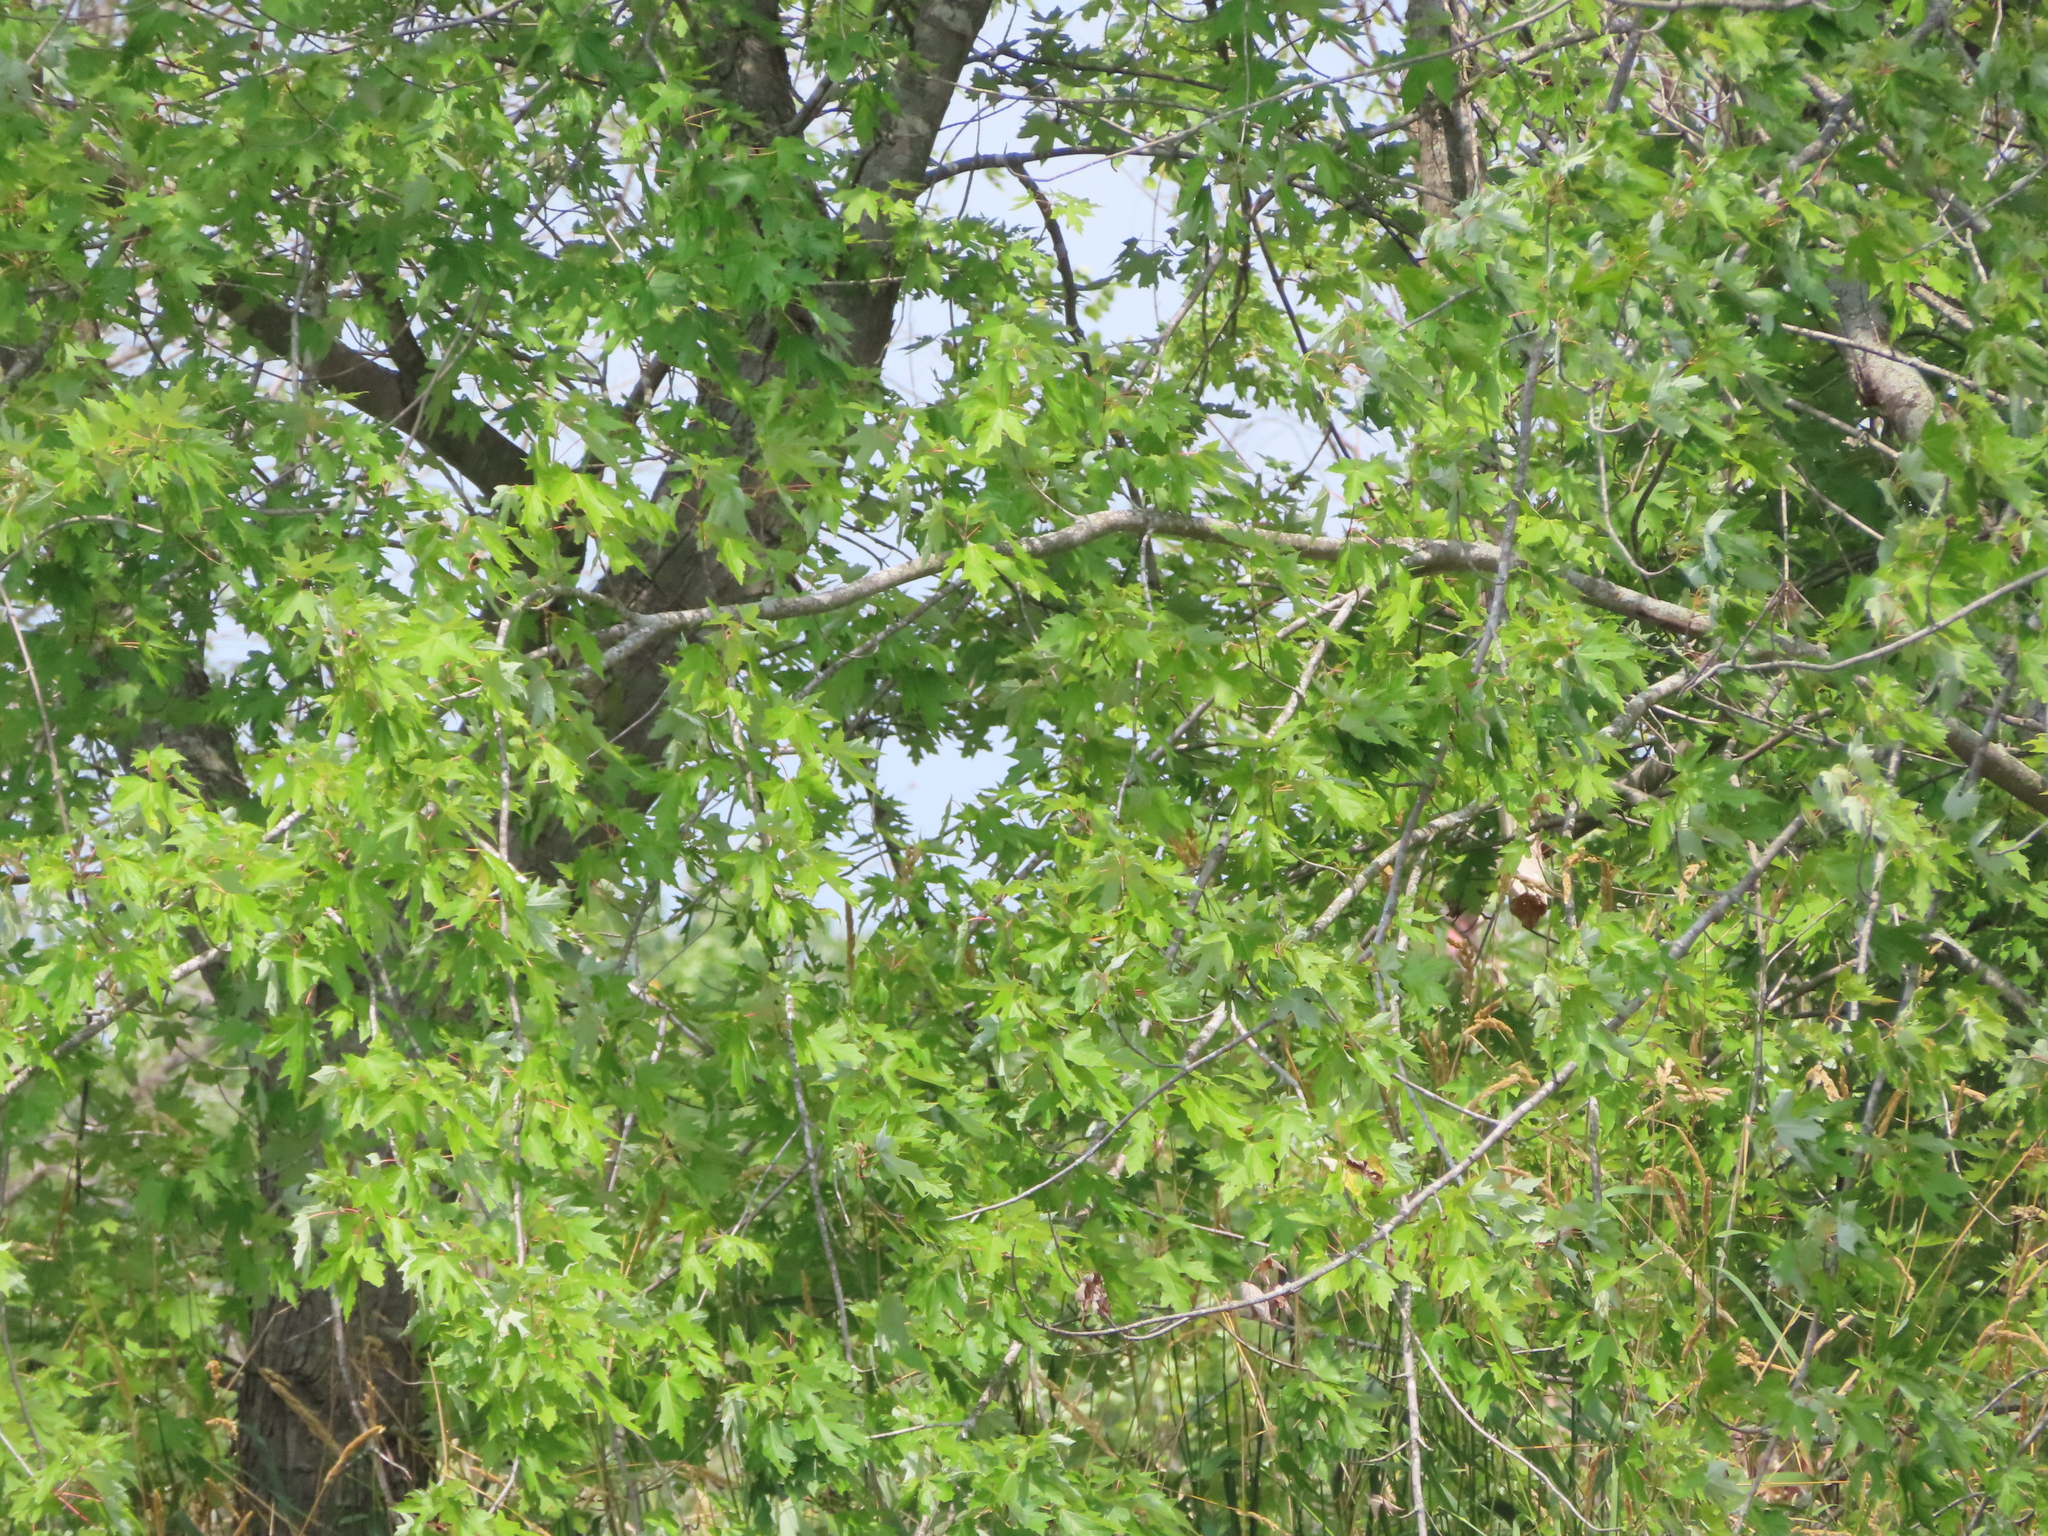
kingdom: Plantae
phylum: Tracheophyta
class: Magnoliopsida
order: Sapindales
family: Sapindaceae
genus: Acer
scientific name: Acer saccharinum
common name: Silver maple
